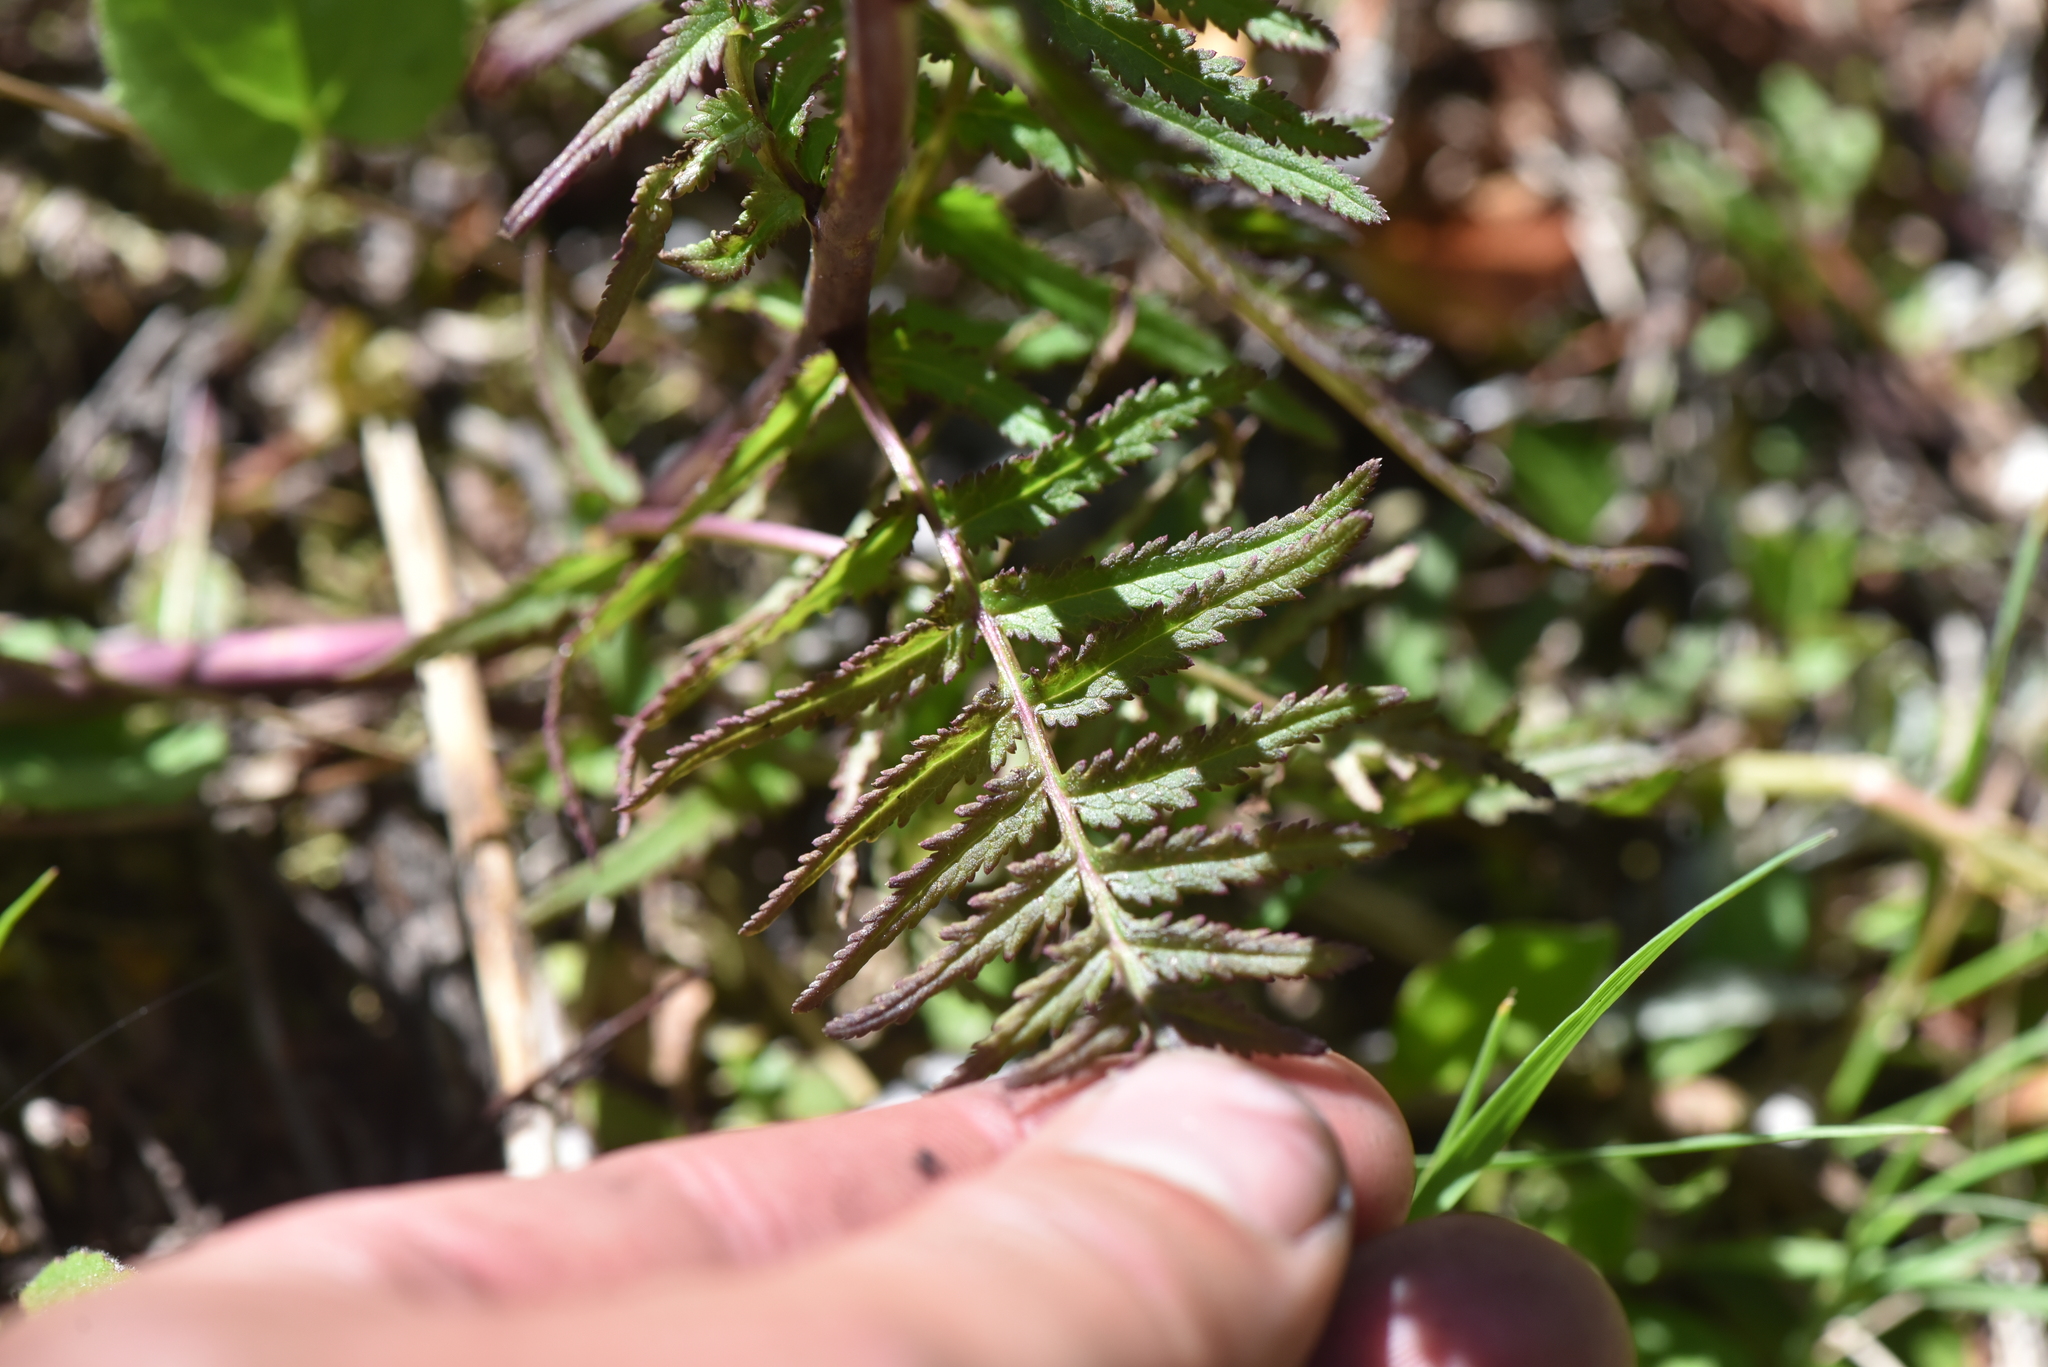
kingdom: Plantae
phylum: Tracheophyta
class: Magnoliopsida
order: Lamiales
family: Orobanchaceae
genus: Pedicularis
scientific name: Pedicularis bracteosa
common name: Bracted lousewort
